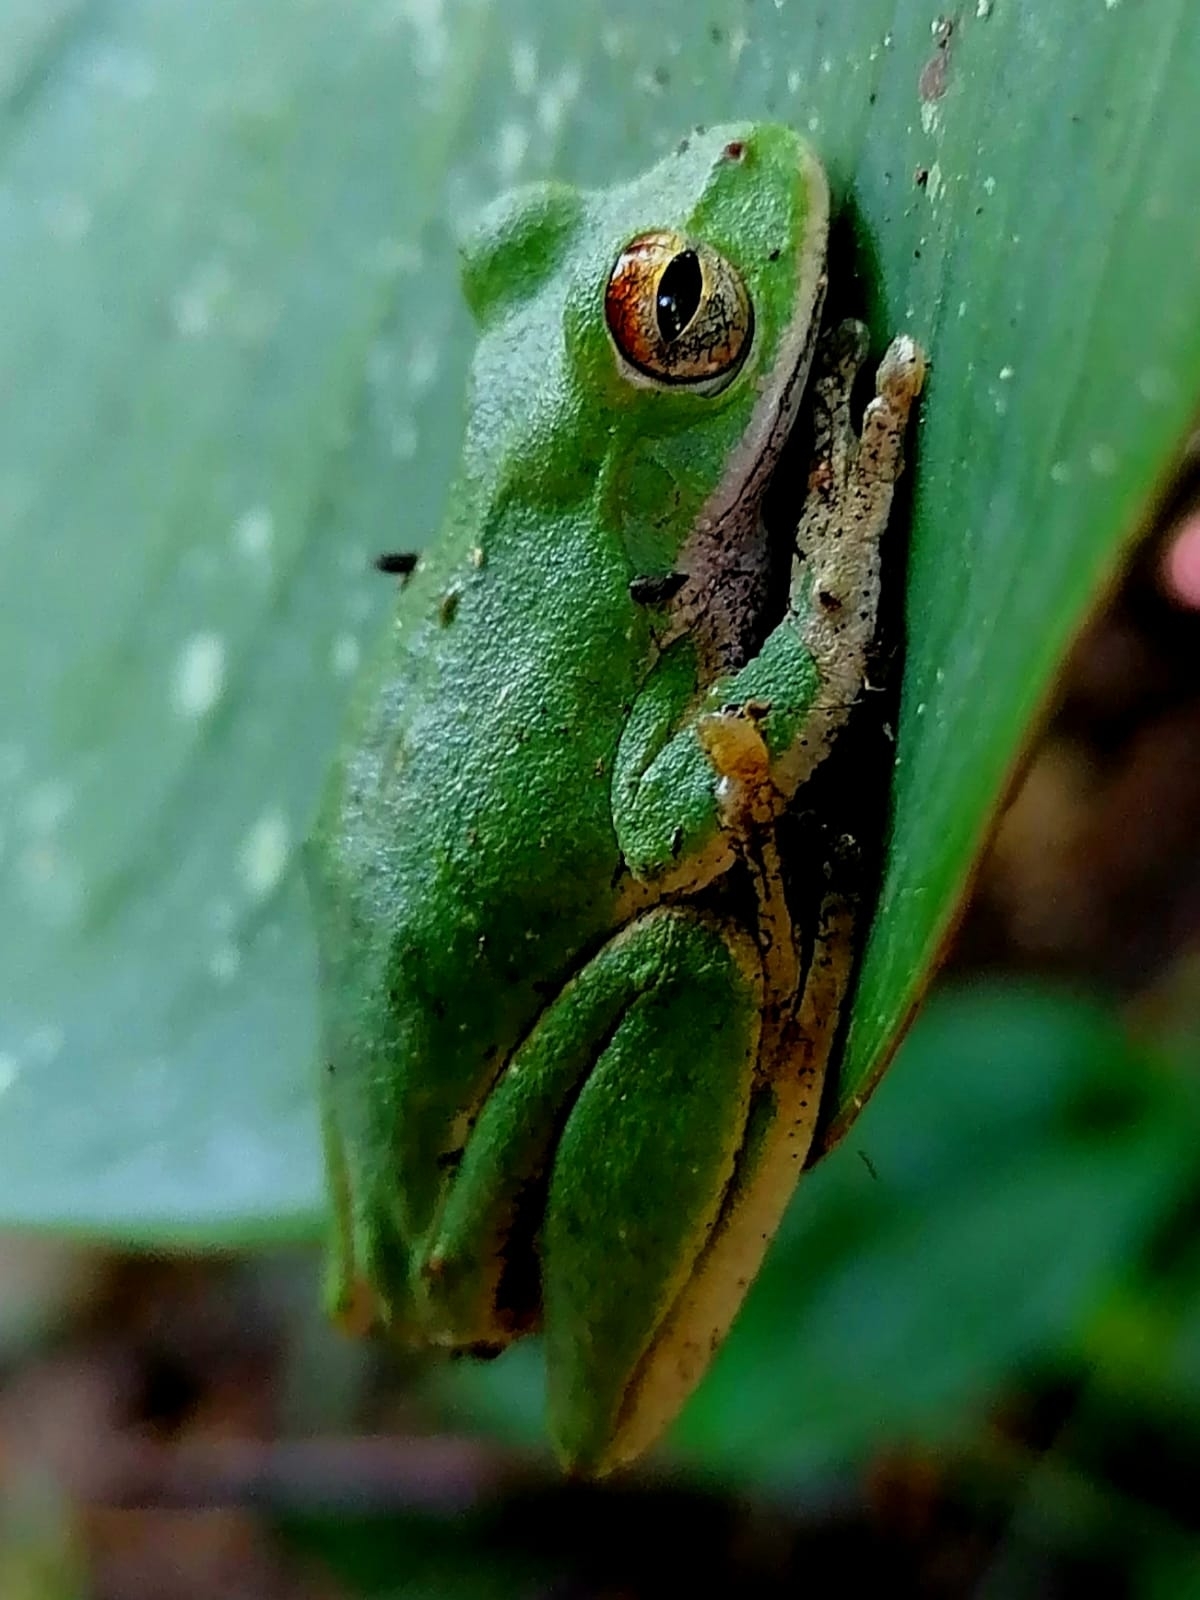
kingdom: Animalia
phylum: Chordata
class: Amphibia
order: Anura
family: Hylidae
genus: Rheohyla
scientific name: Rheohyla miotympanum
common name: Small-eard hyla
